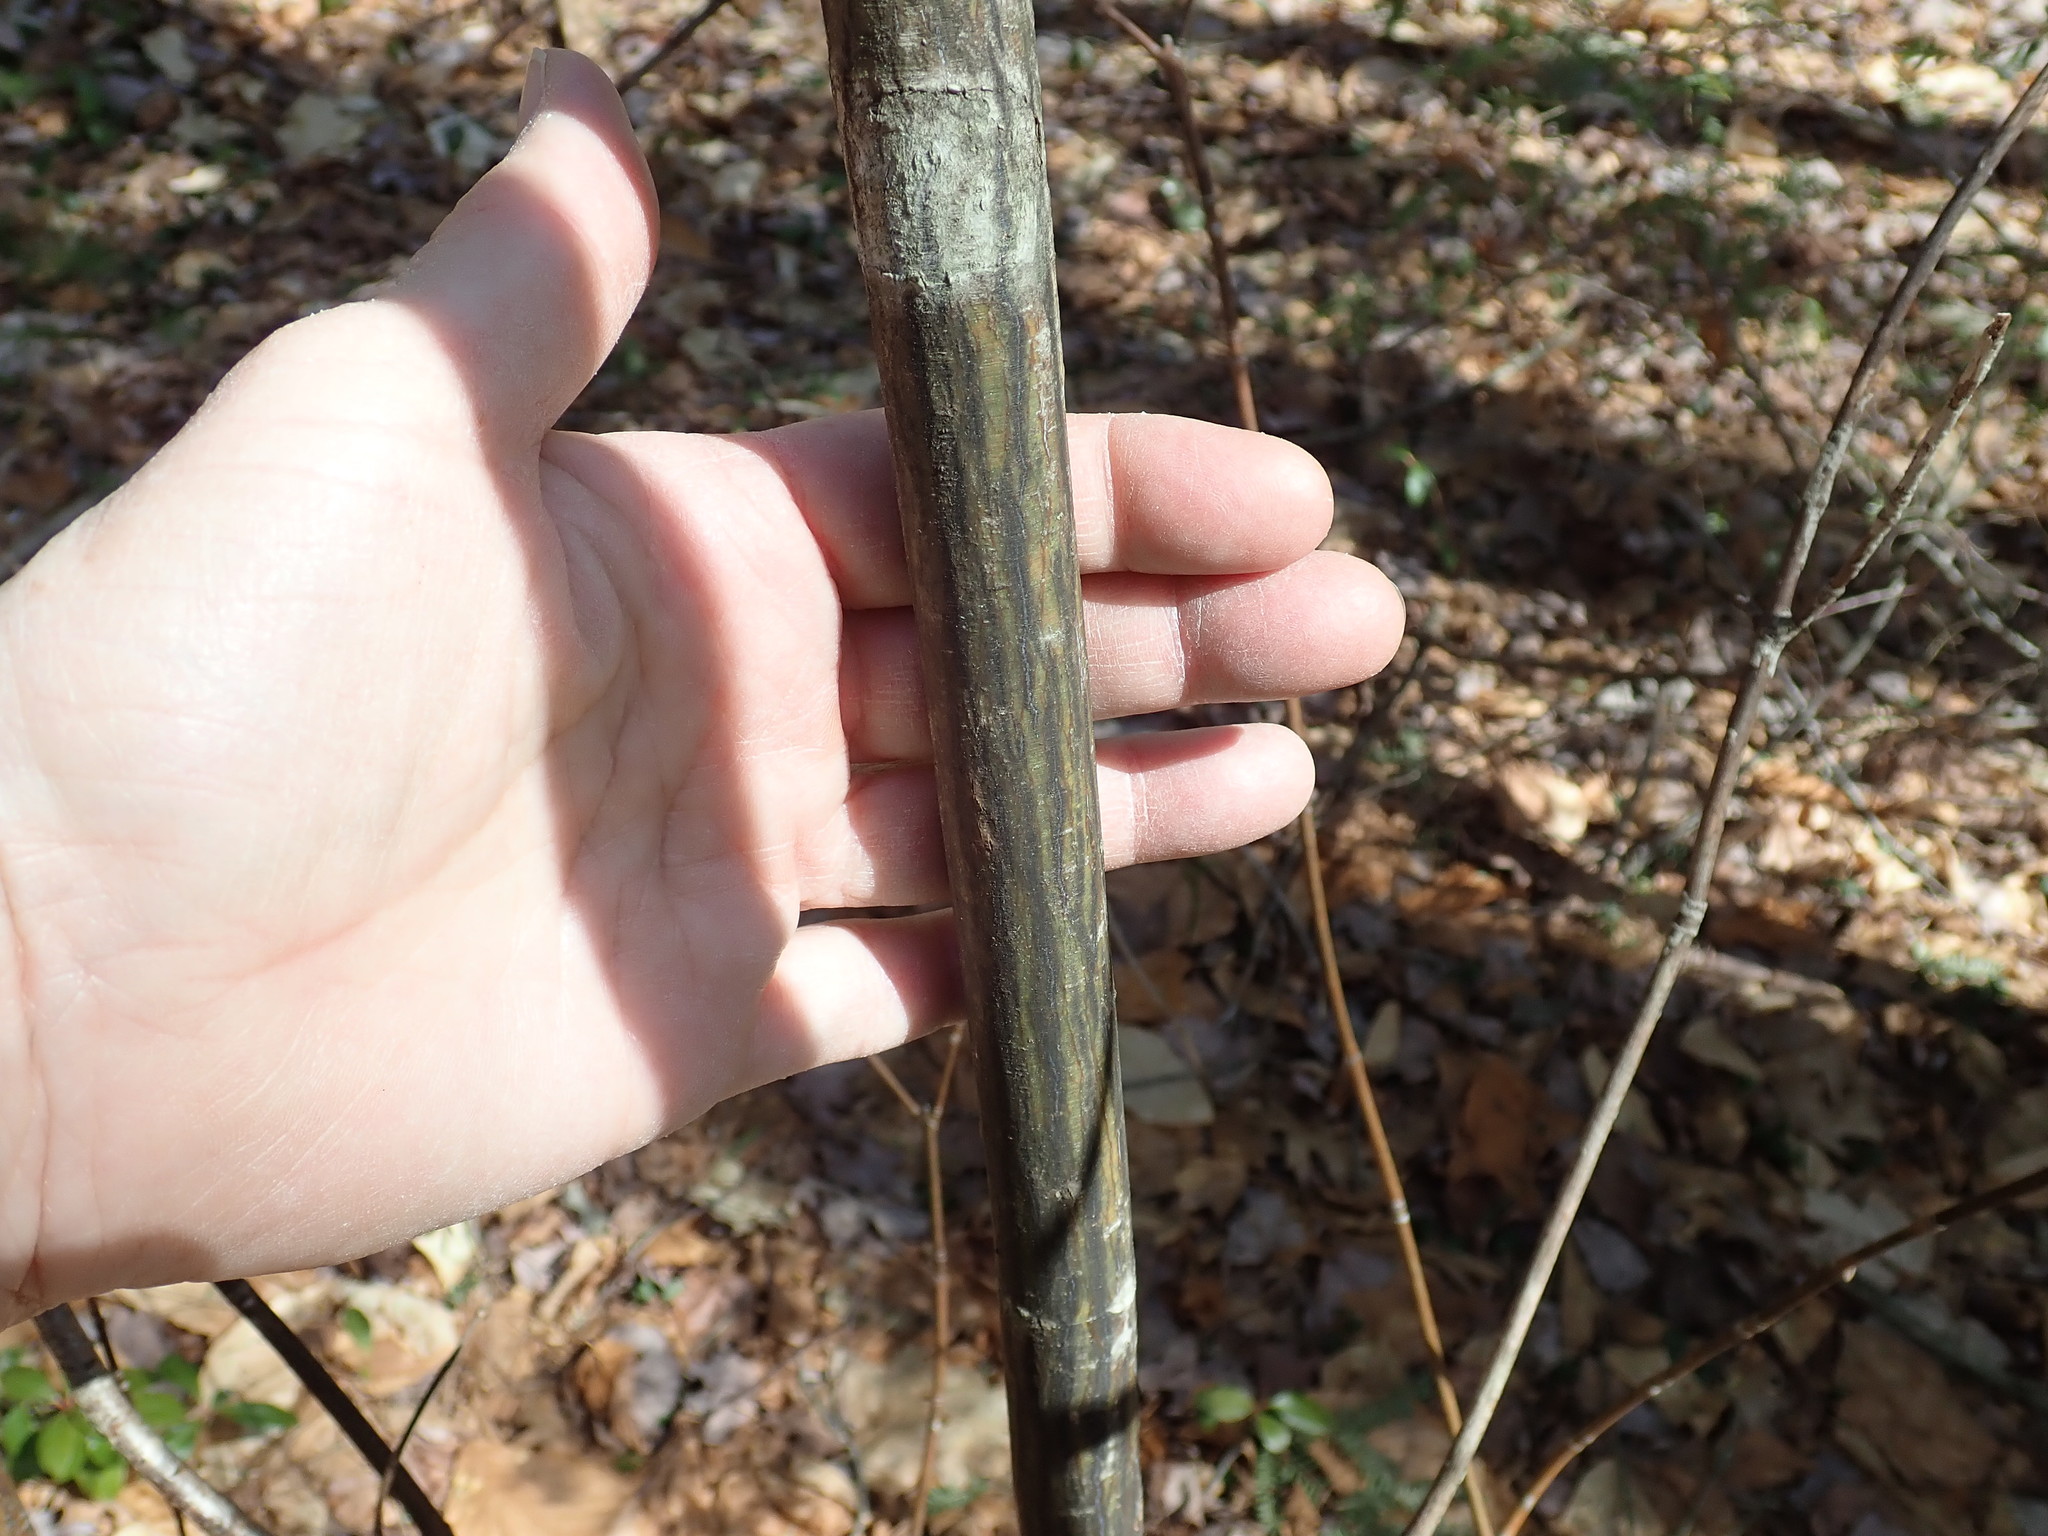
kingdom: Plantae
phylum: Tracheophyta
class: Magnoliopsida
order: Sapindales
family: Sapindaceae
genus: Acer
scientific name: Acer pensylvanicum
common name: Moosewood
